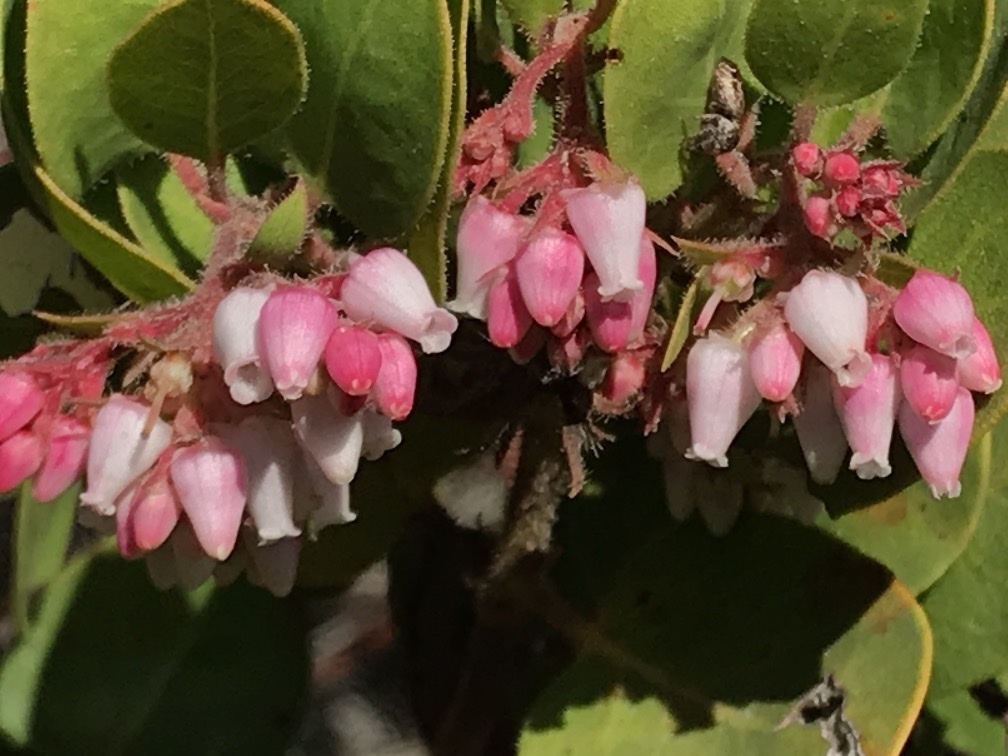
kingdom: Plantae
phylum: Tracheophyta
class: Magnoliopsida
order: Ericales
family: Ericaceae
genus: Arctostaphylos
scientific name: Arctostaphylos montereyensis
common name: Monterey manzanita
